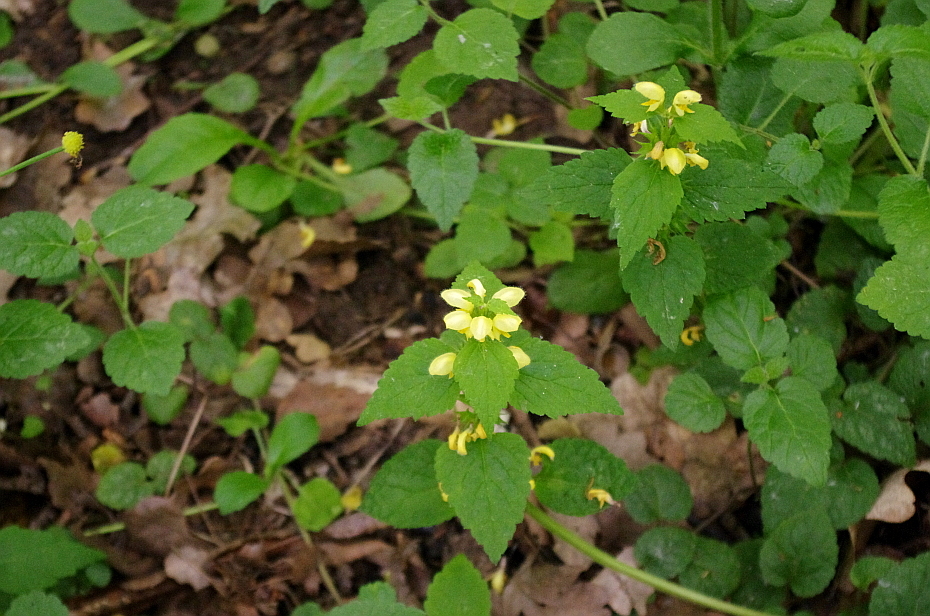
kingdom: Plantae
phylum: Tracheophyta
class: Magnoliopsida
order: Lamiales
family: Lamiaceae
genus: Lamium
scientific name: Lamium galeobdolon
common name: Yellow archangel
